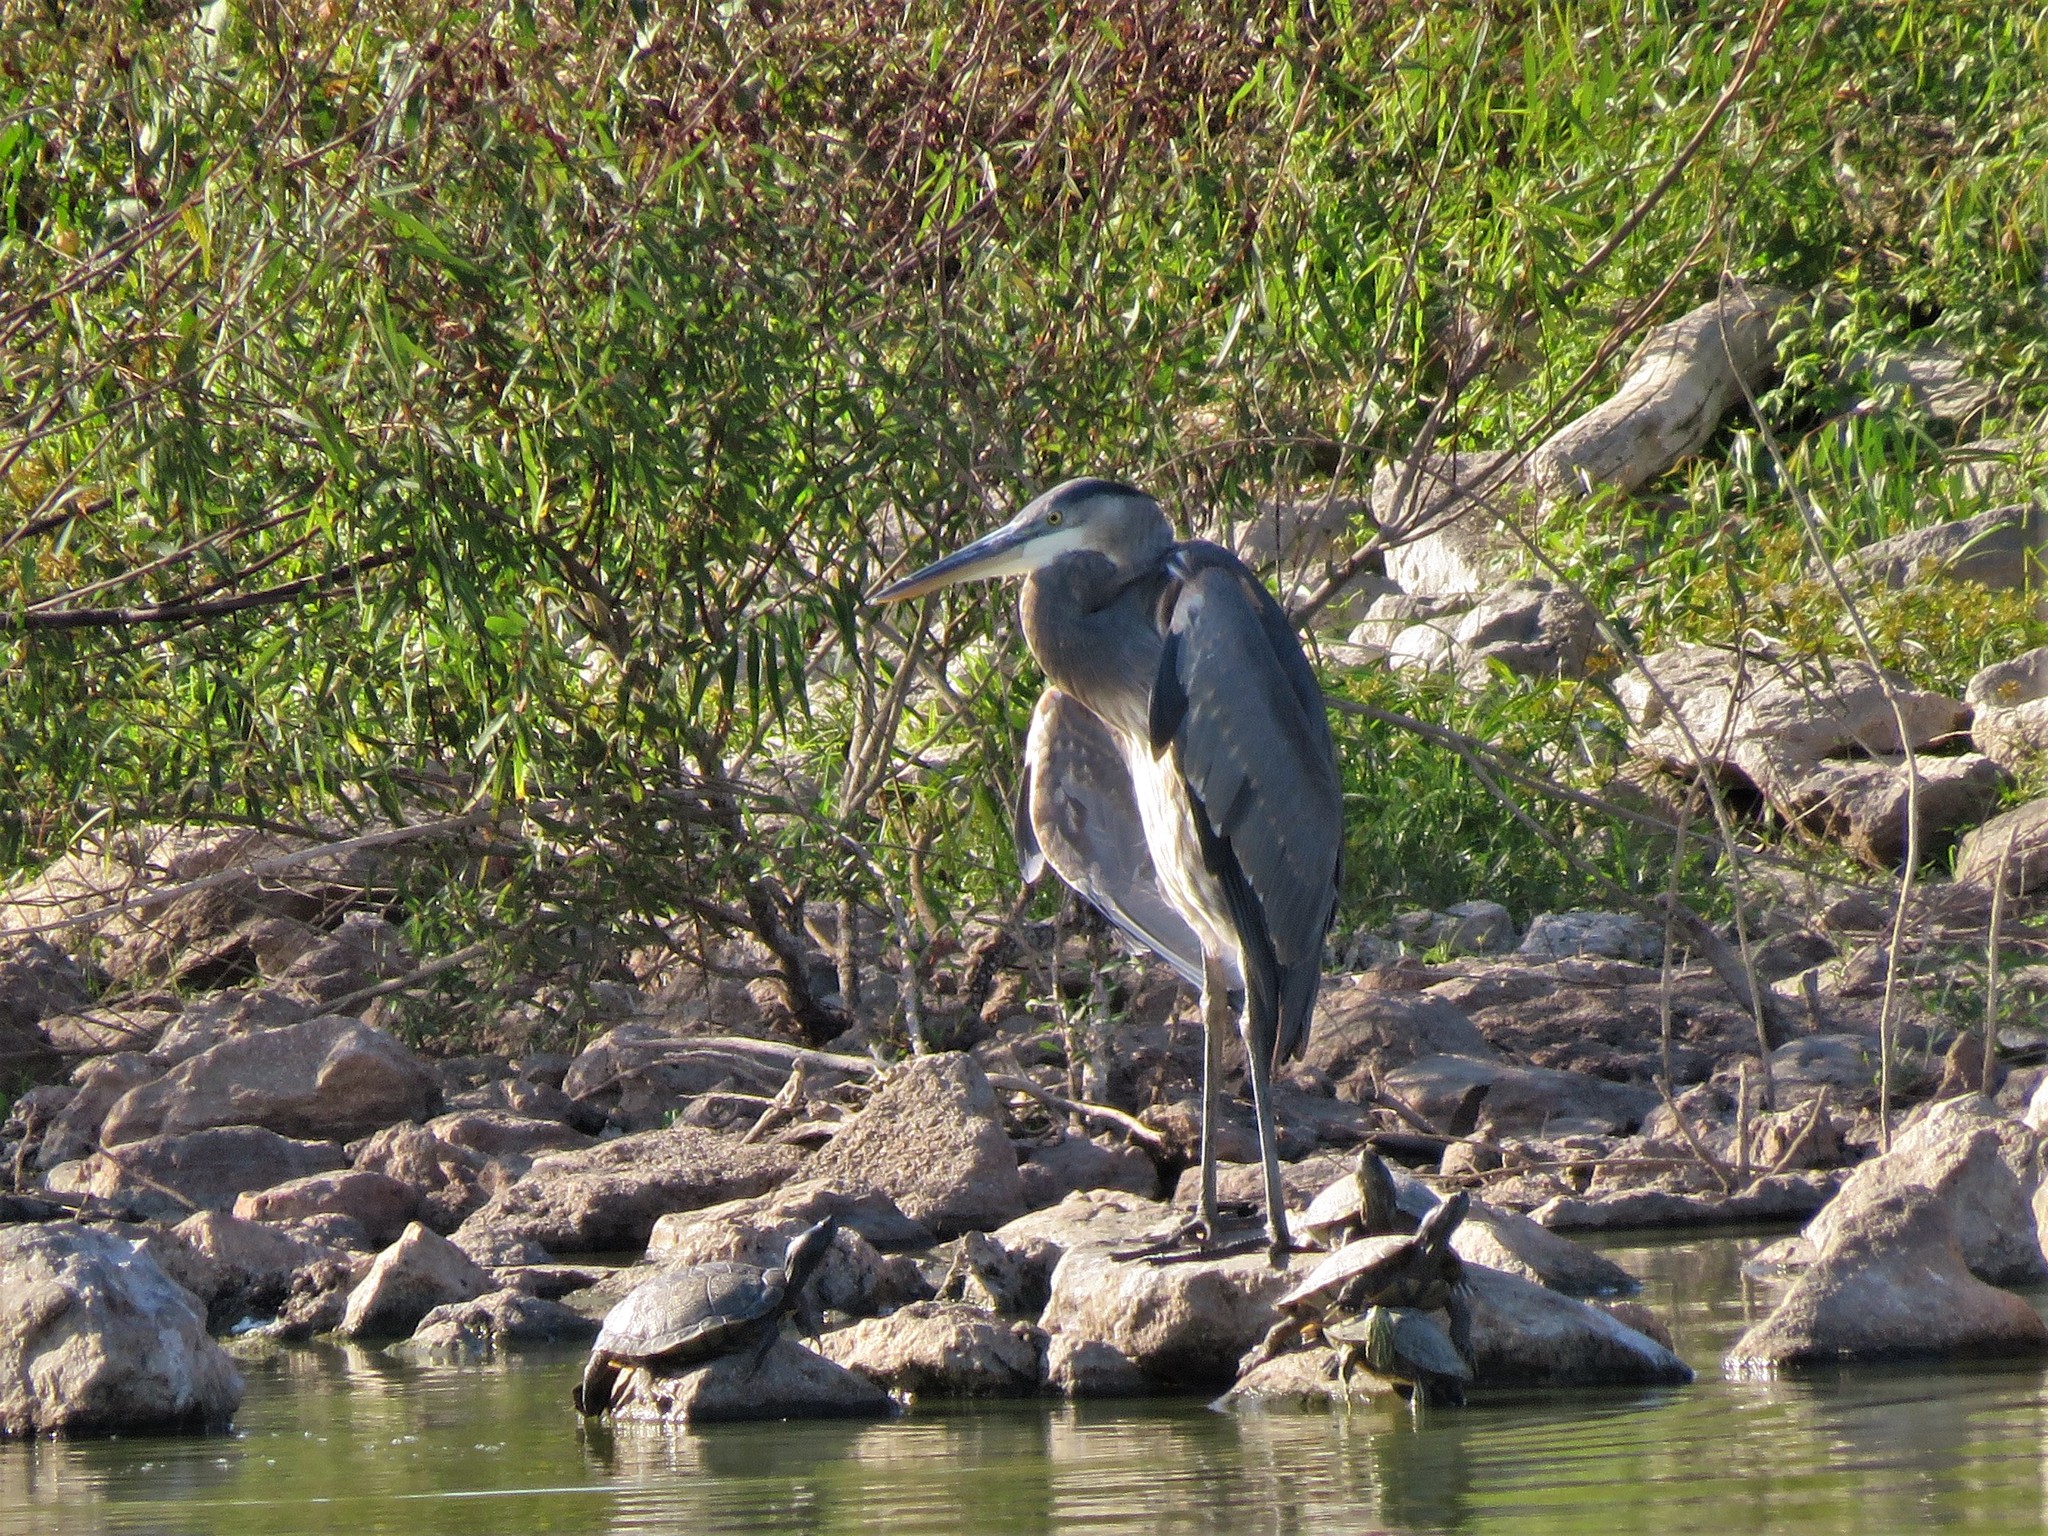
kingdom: Animalia
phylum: Chordata
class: Aves
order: Pelecaniformes
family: Ardeidae
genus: Ardea
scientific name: Ardea herodias
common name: Great blue heron
